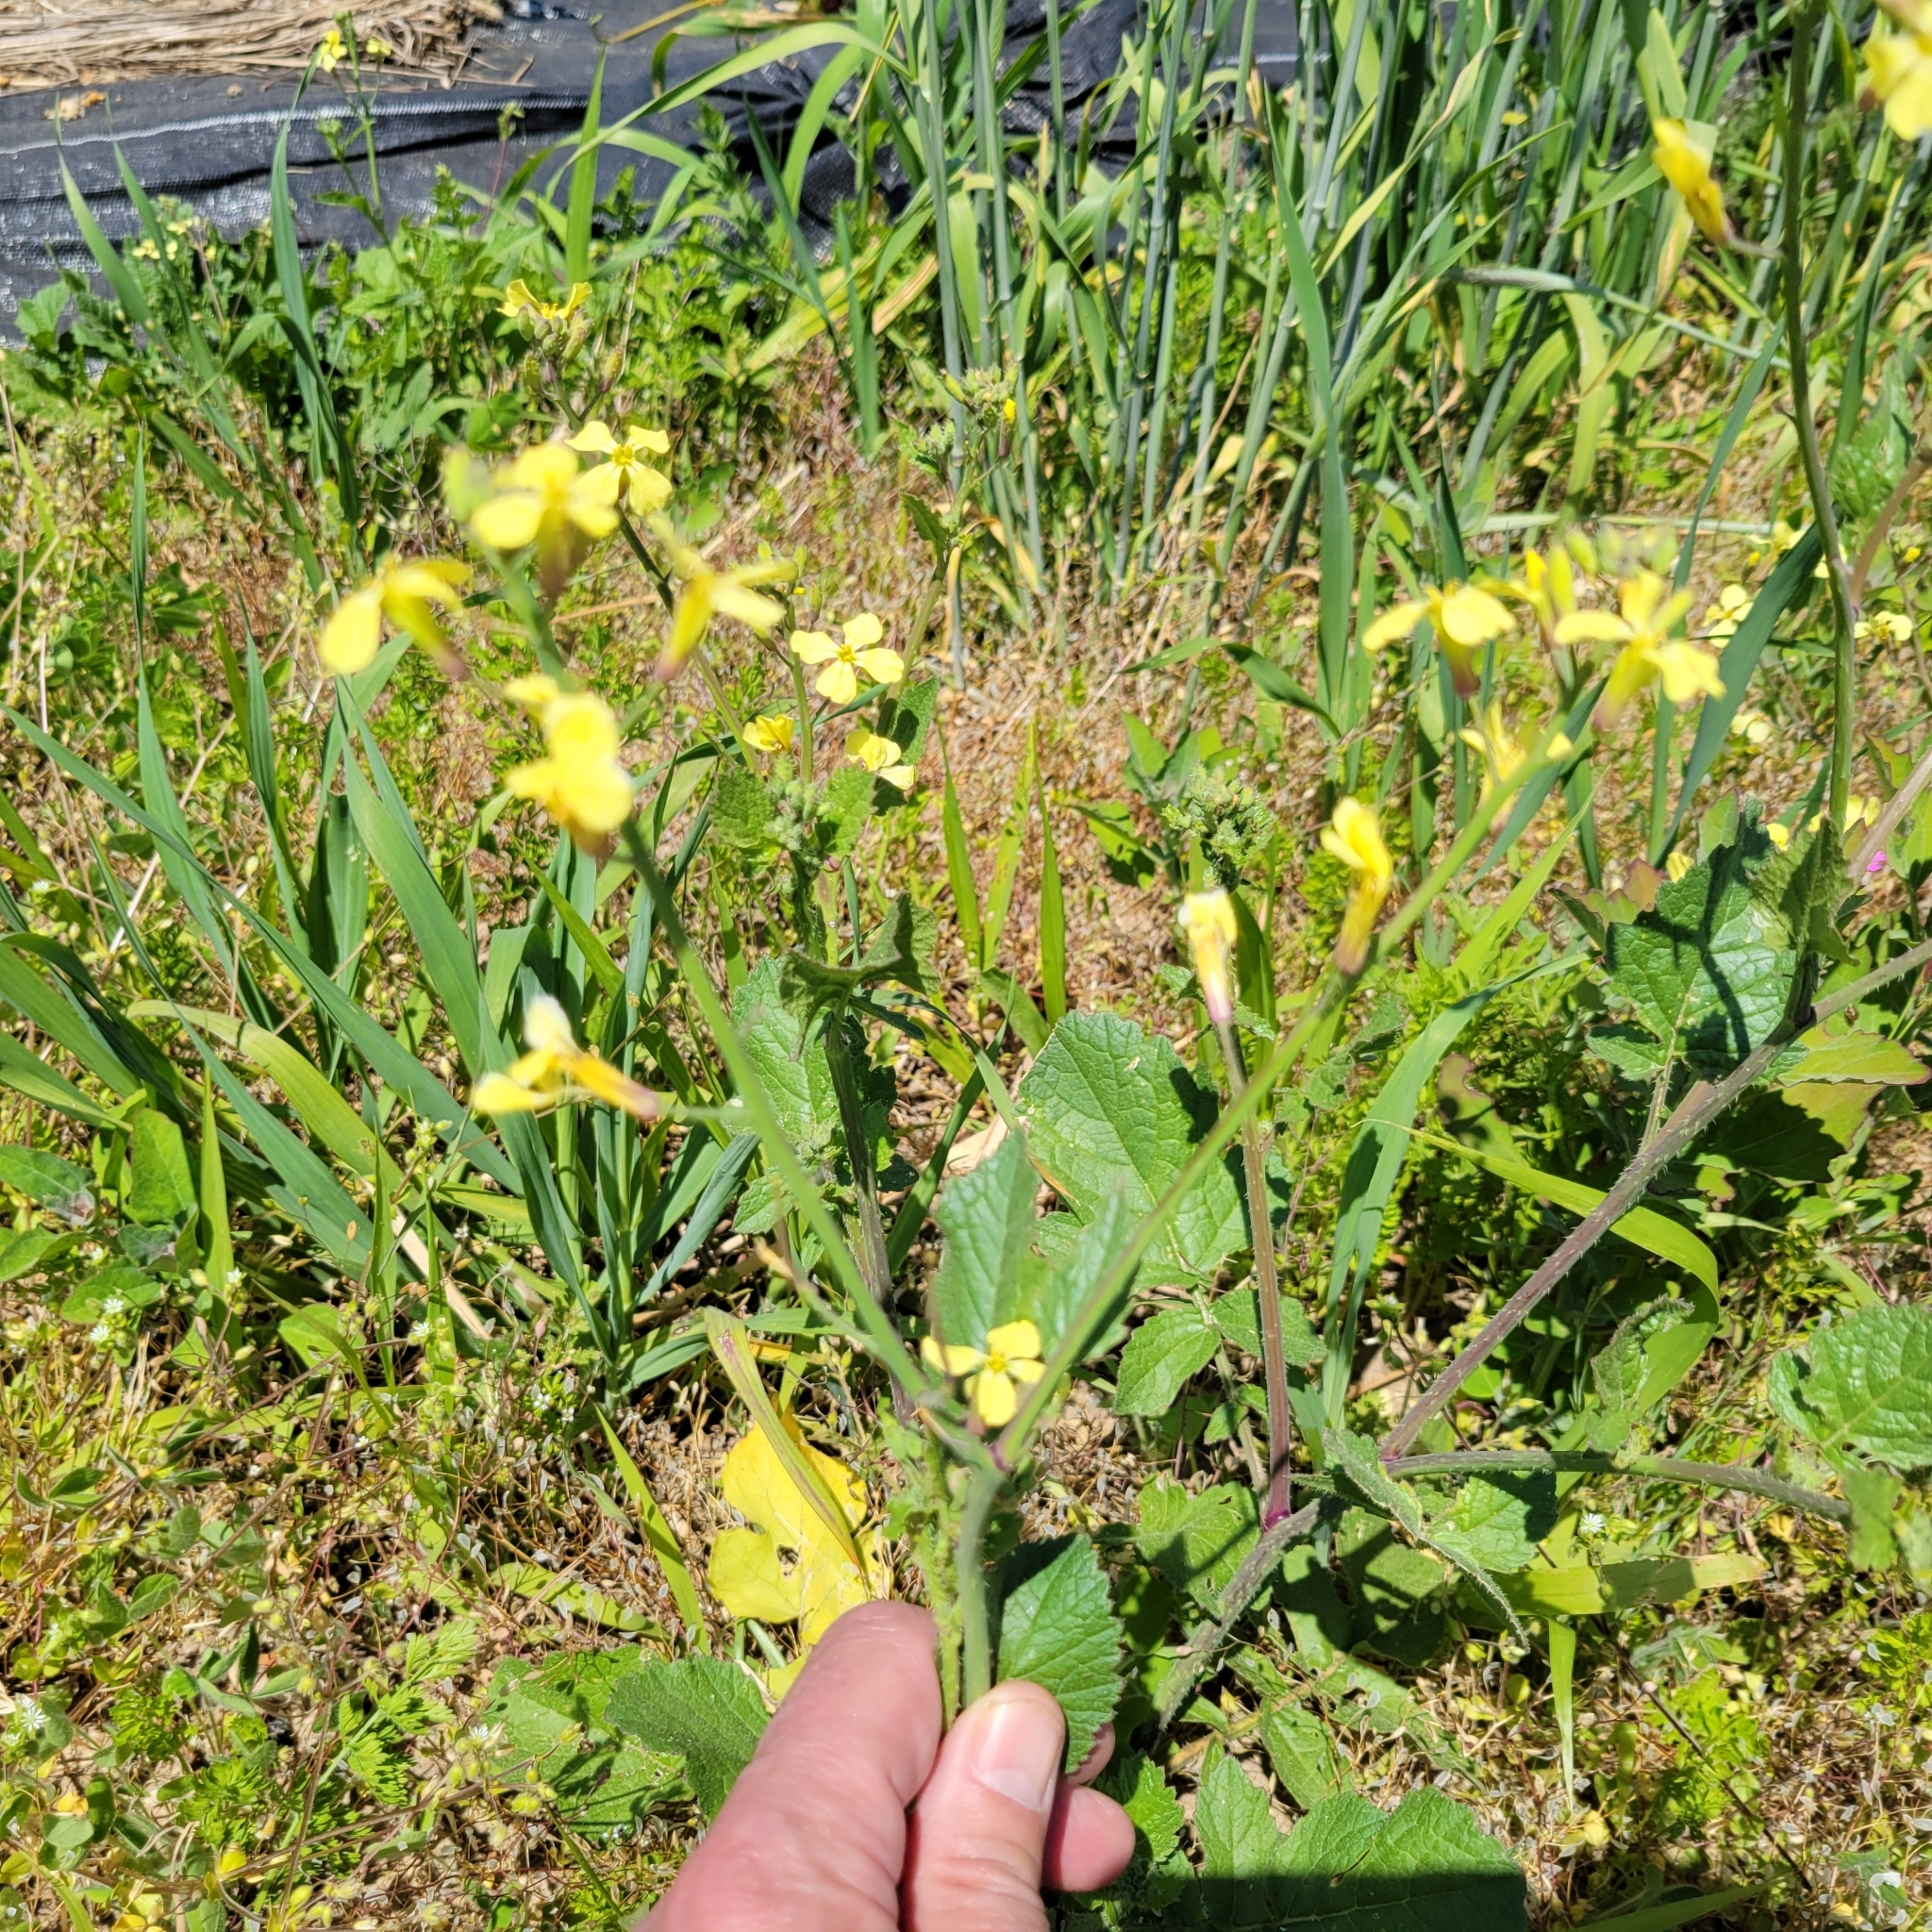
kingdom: Plantae
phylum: Tracheophyta
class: Magnoliopsida
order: Brassicales
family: Brassicaceae
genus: Raphanus
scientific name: Raphanus raphanistrum
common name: Wild radish
